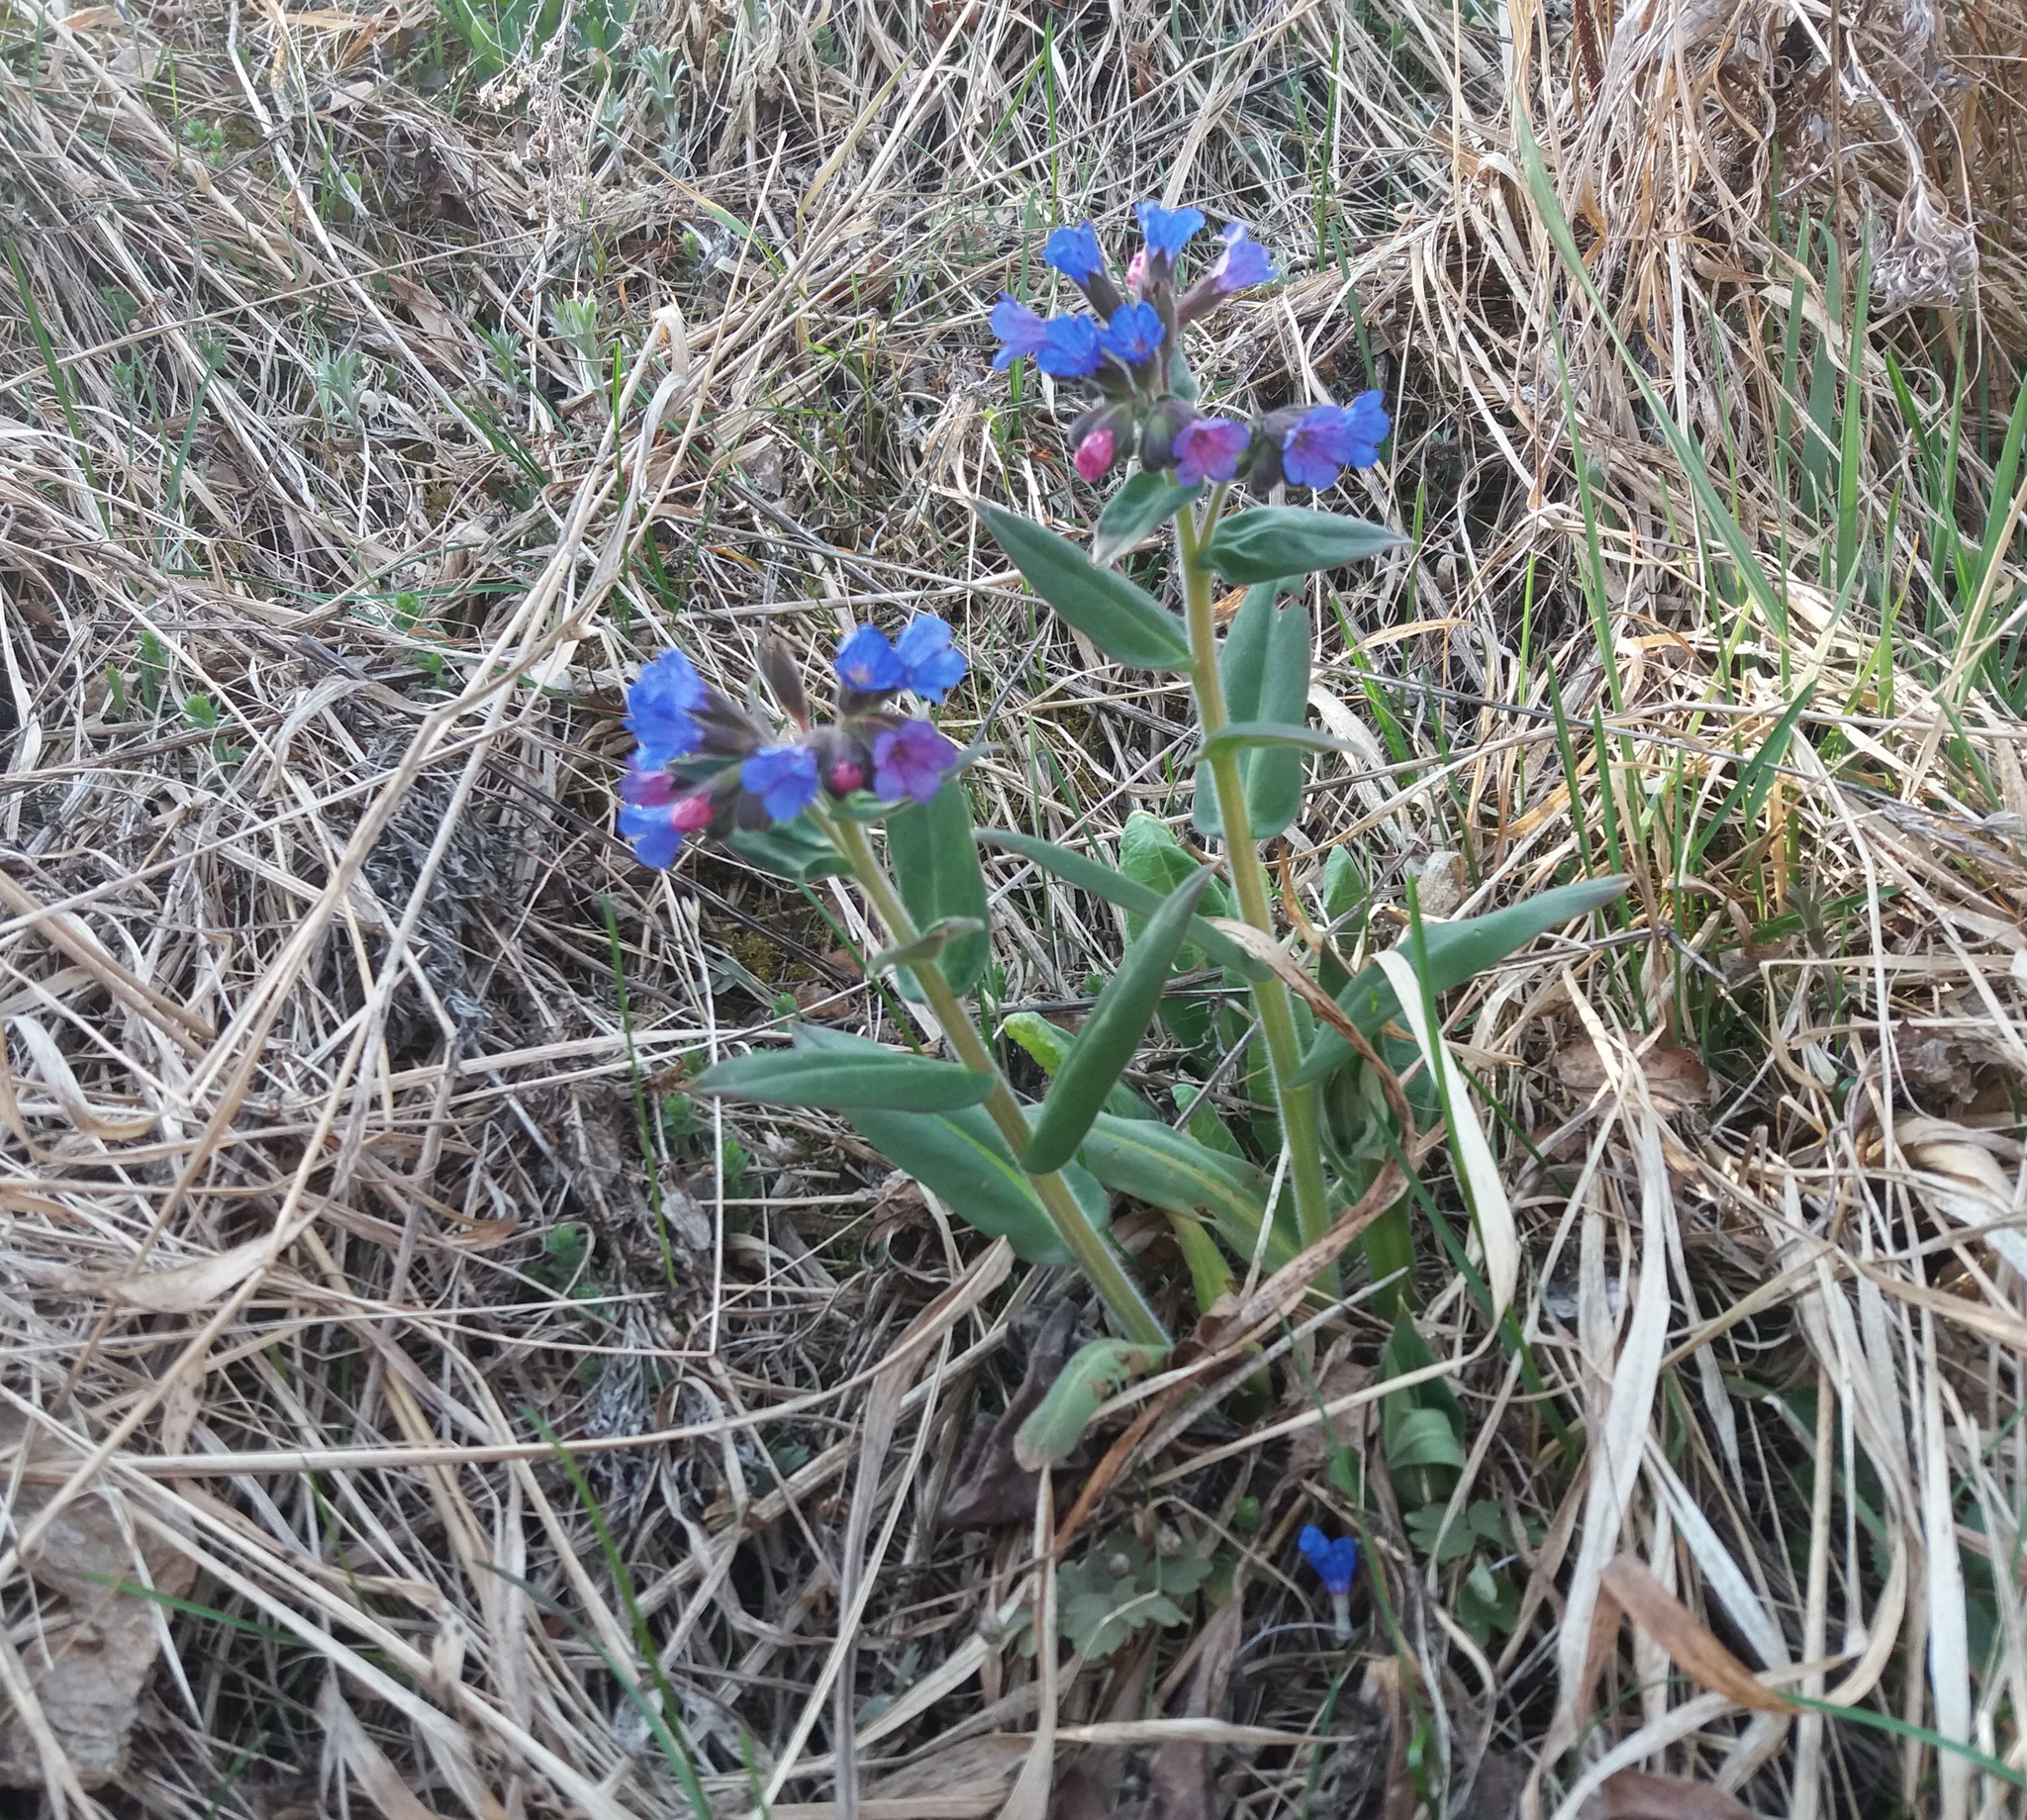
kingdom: Plantae
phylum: Tracheophyta
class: Magnoliopsida
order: Boraginales
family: Boraginaceae
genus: Pulmonaria
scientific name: Pulmonaria mollis
